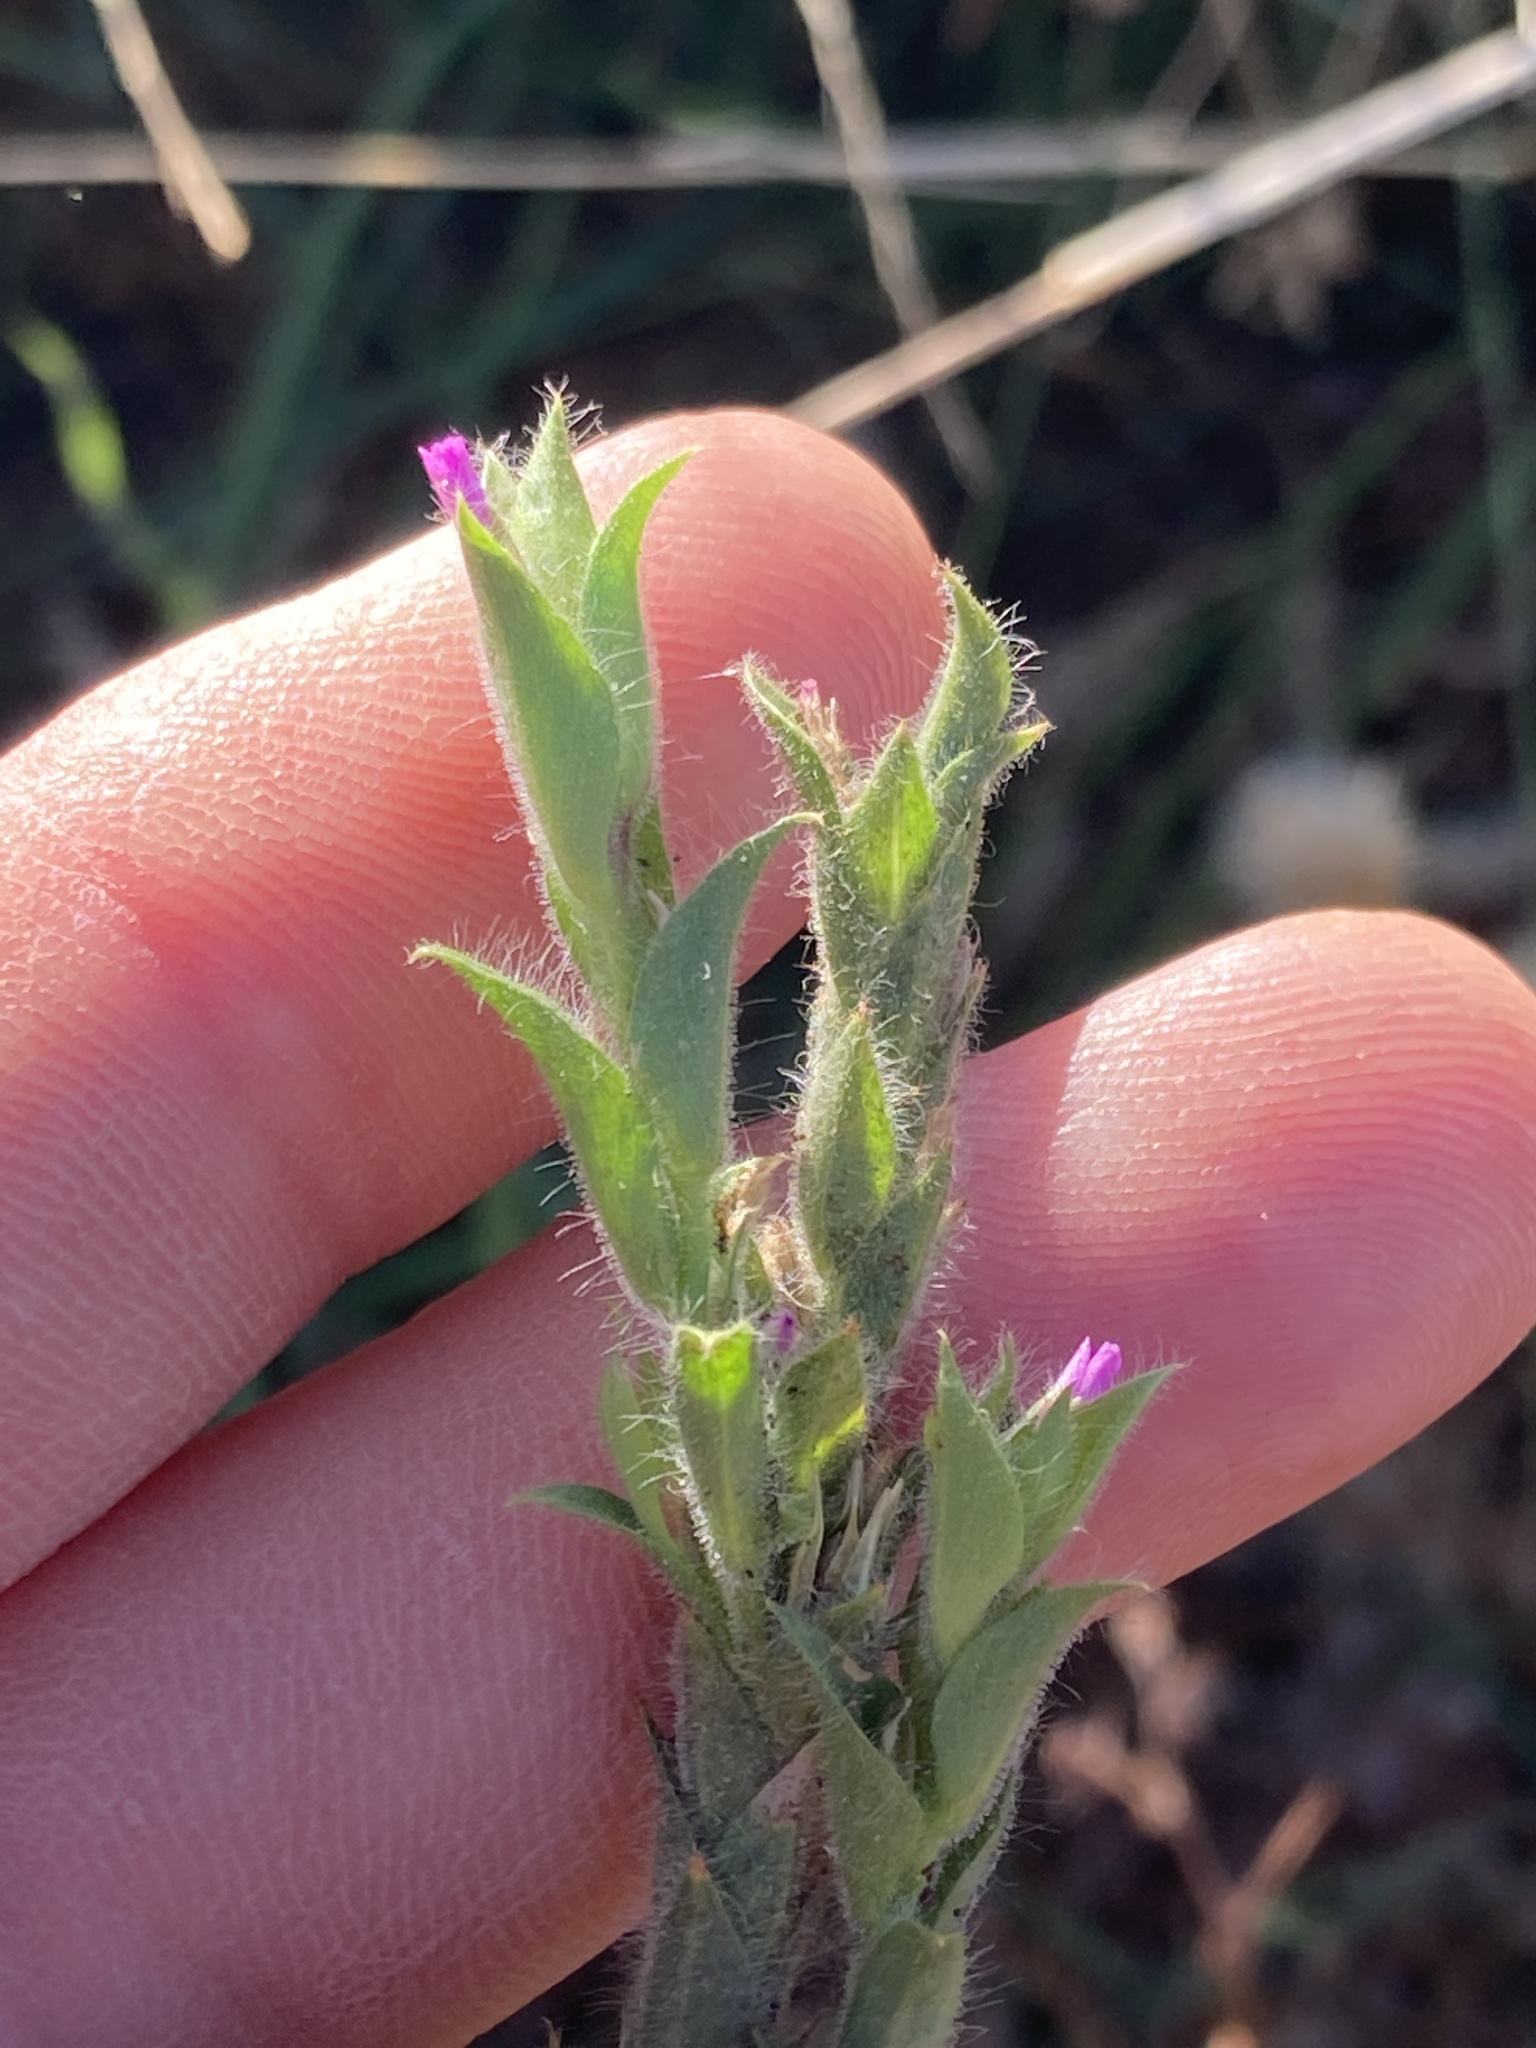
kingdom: Plantae
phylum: Tracheophyta
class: Magnoliopsida
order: Myrtales
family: Onagraceae
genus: Epilobium
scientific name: Epilobium densiflorum
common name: Dense spike-primrose
